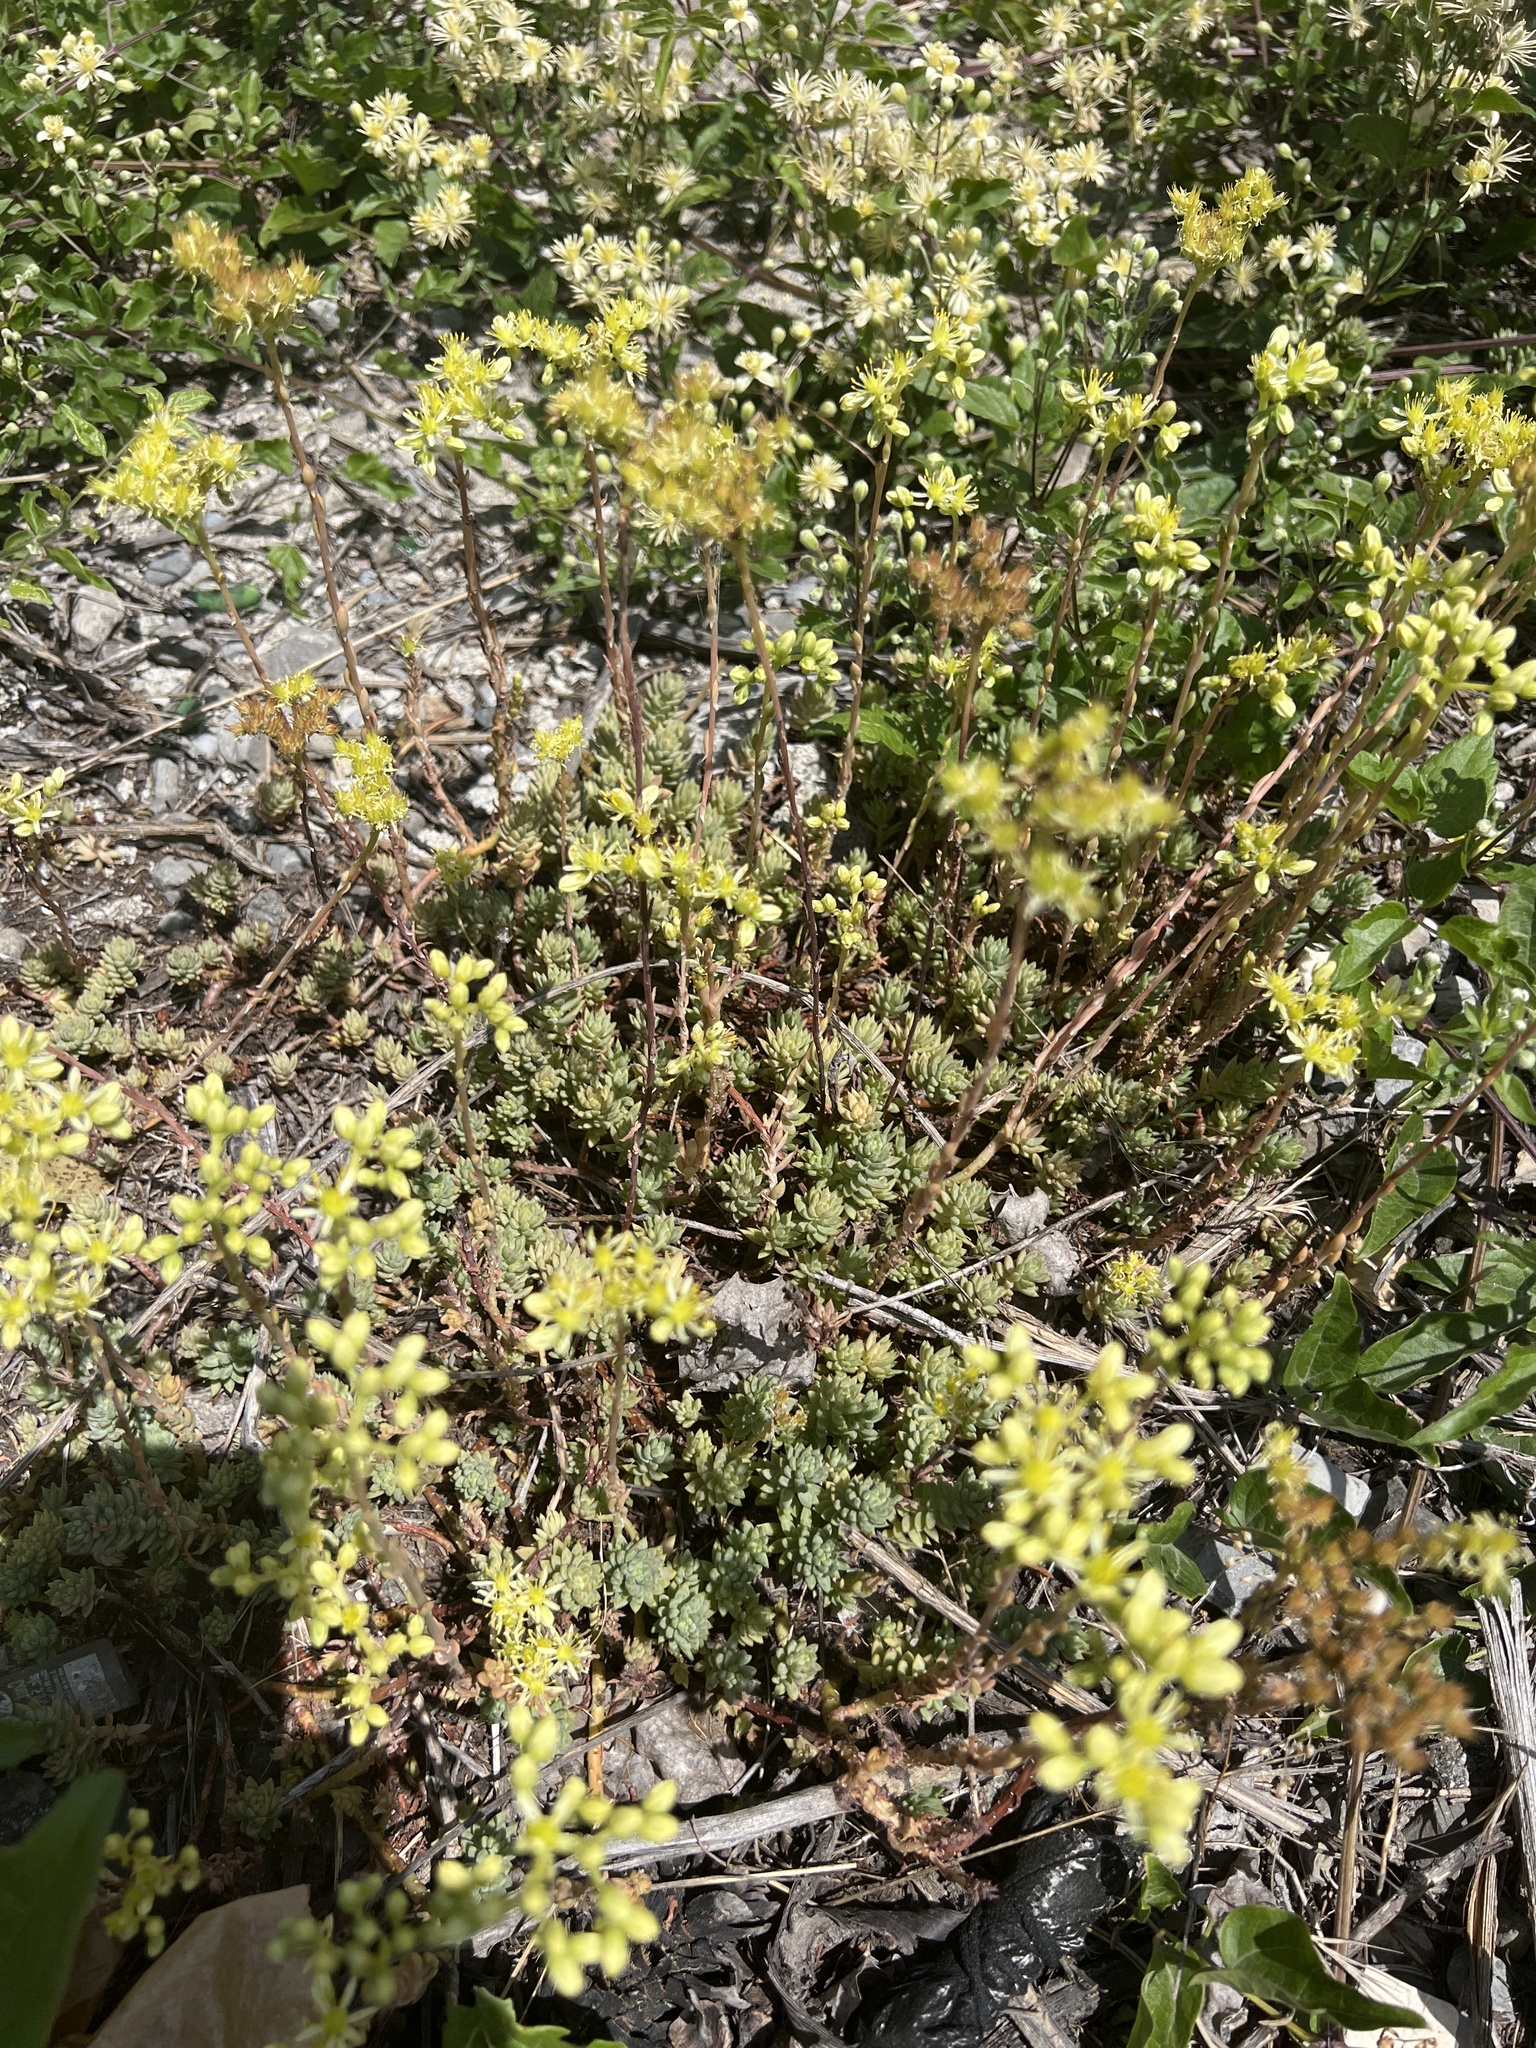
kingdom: Plantae
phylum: Tracheophyta
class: Magnoliopsida
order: Saxifragales
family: Crassulaceae
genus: Petrosedum
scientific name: Petrosedum sediforme
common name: Pale stonecrop
